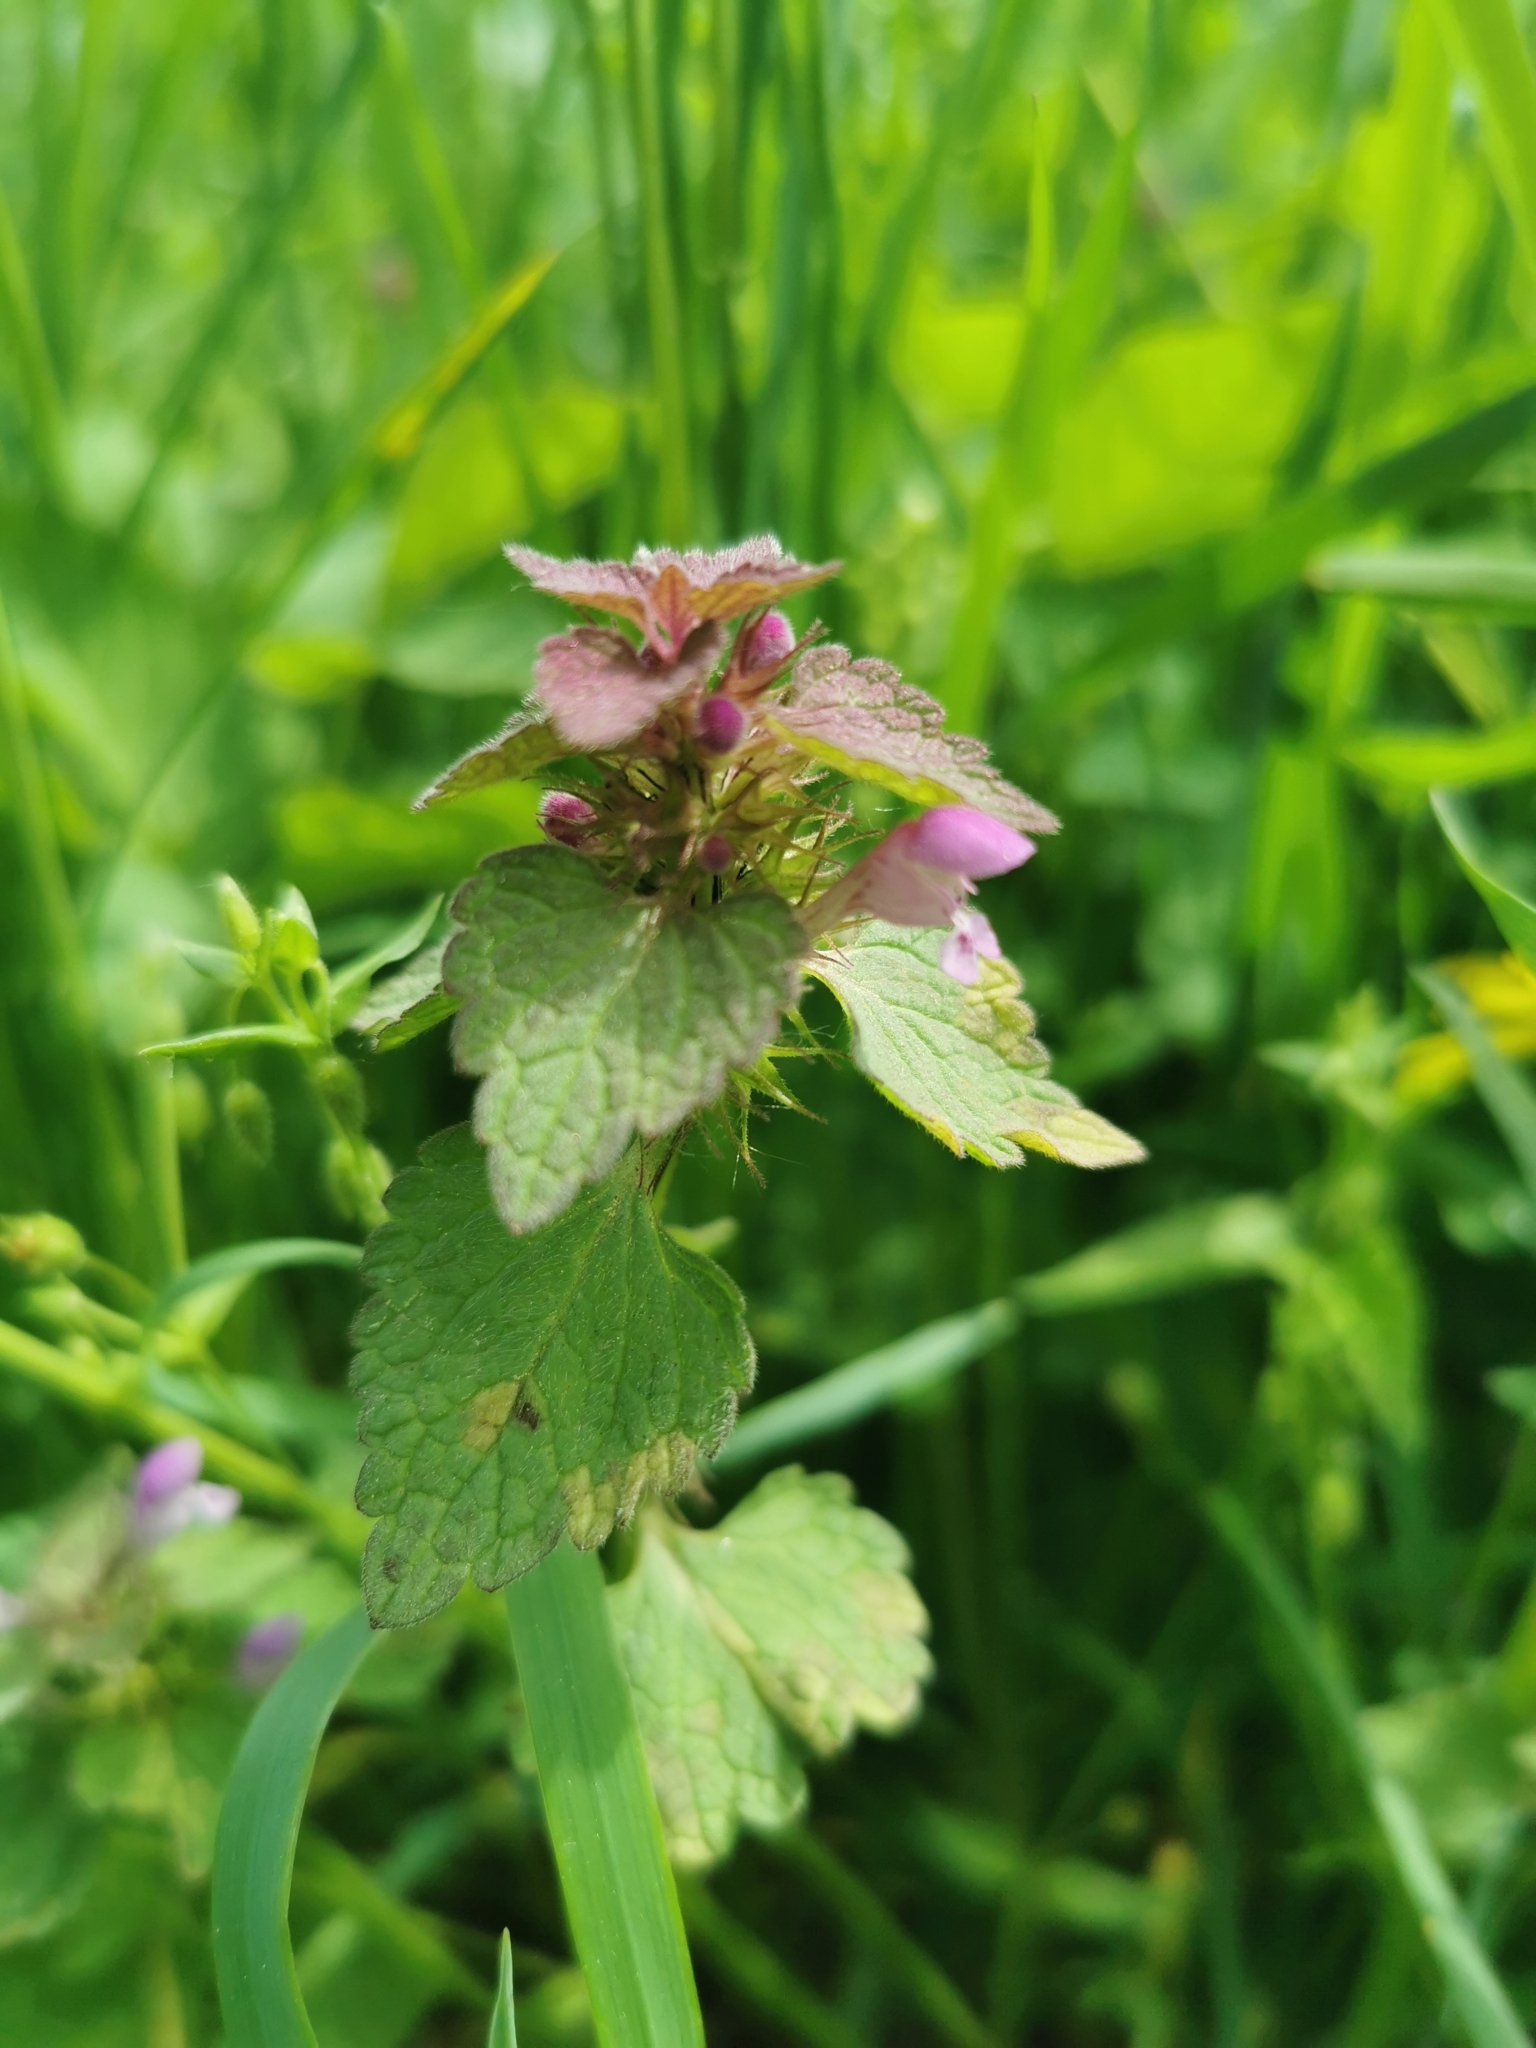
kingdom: Plantae
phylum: Tracheophyta
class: Magnoliopsida
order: Lamiales
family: Lamiaceae
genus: Lamium
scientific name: Lamium purpureum
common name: Red dead-nettle
